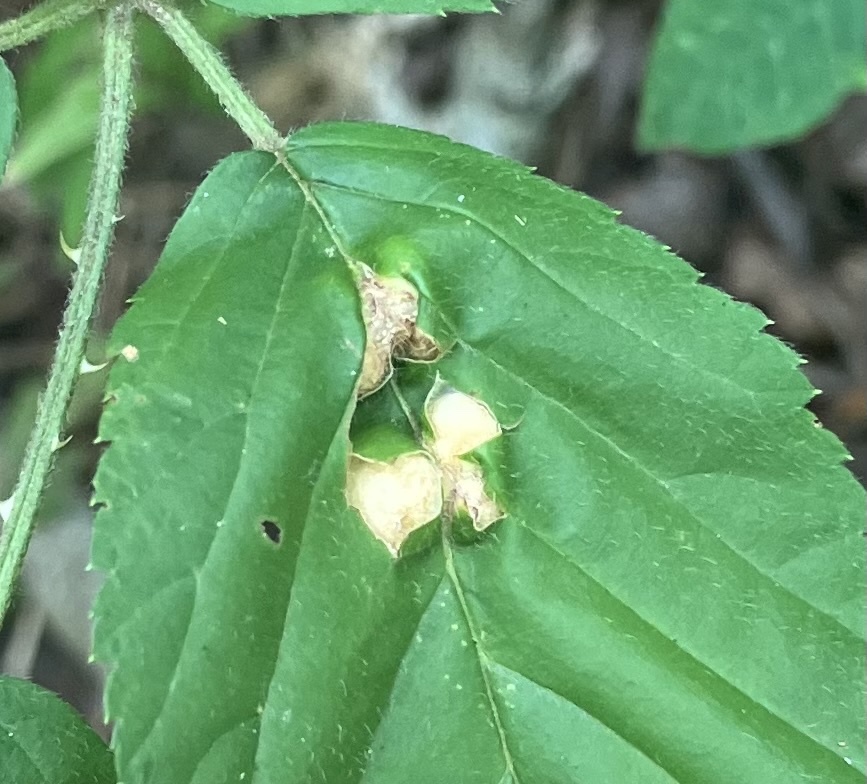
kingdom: Animalia
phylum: Arthropoda
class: Insecta
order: Diptera
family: Cecidomyiidae
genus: Neolasioptera
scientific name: Neolasioptera farinosa
